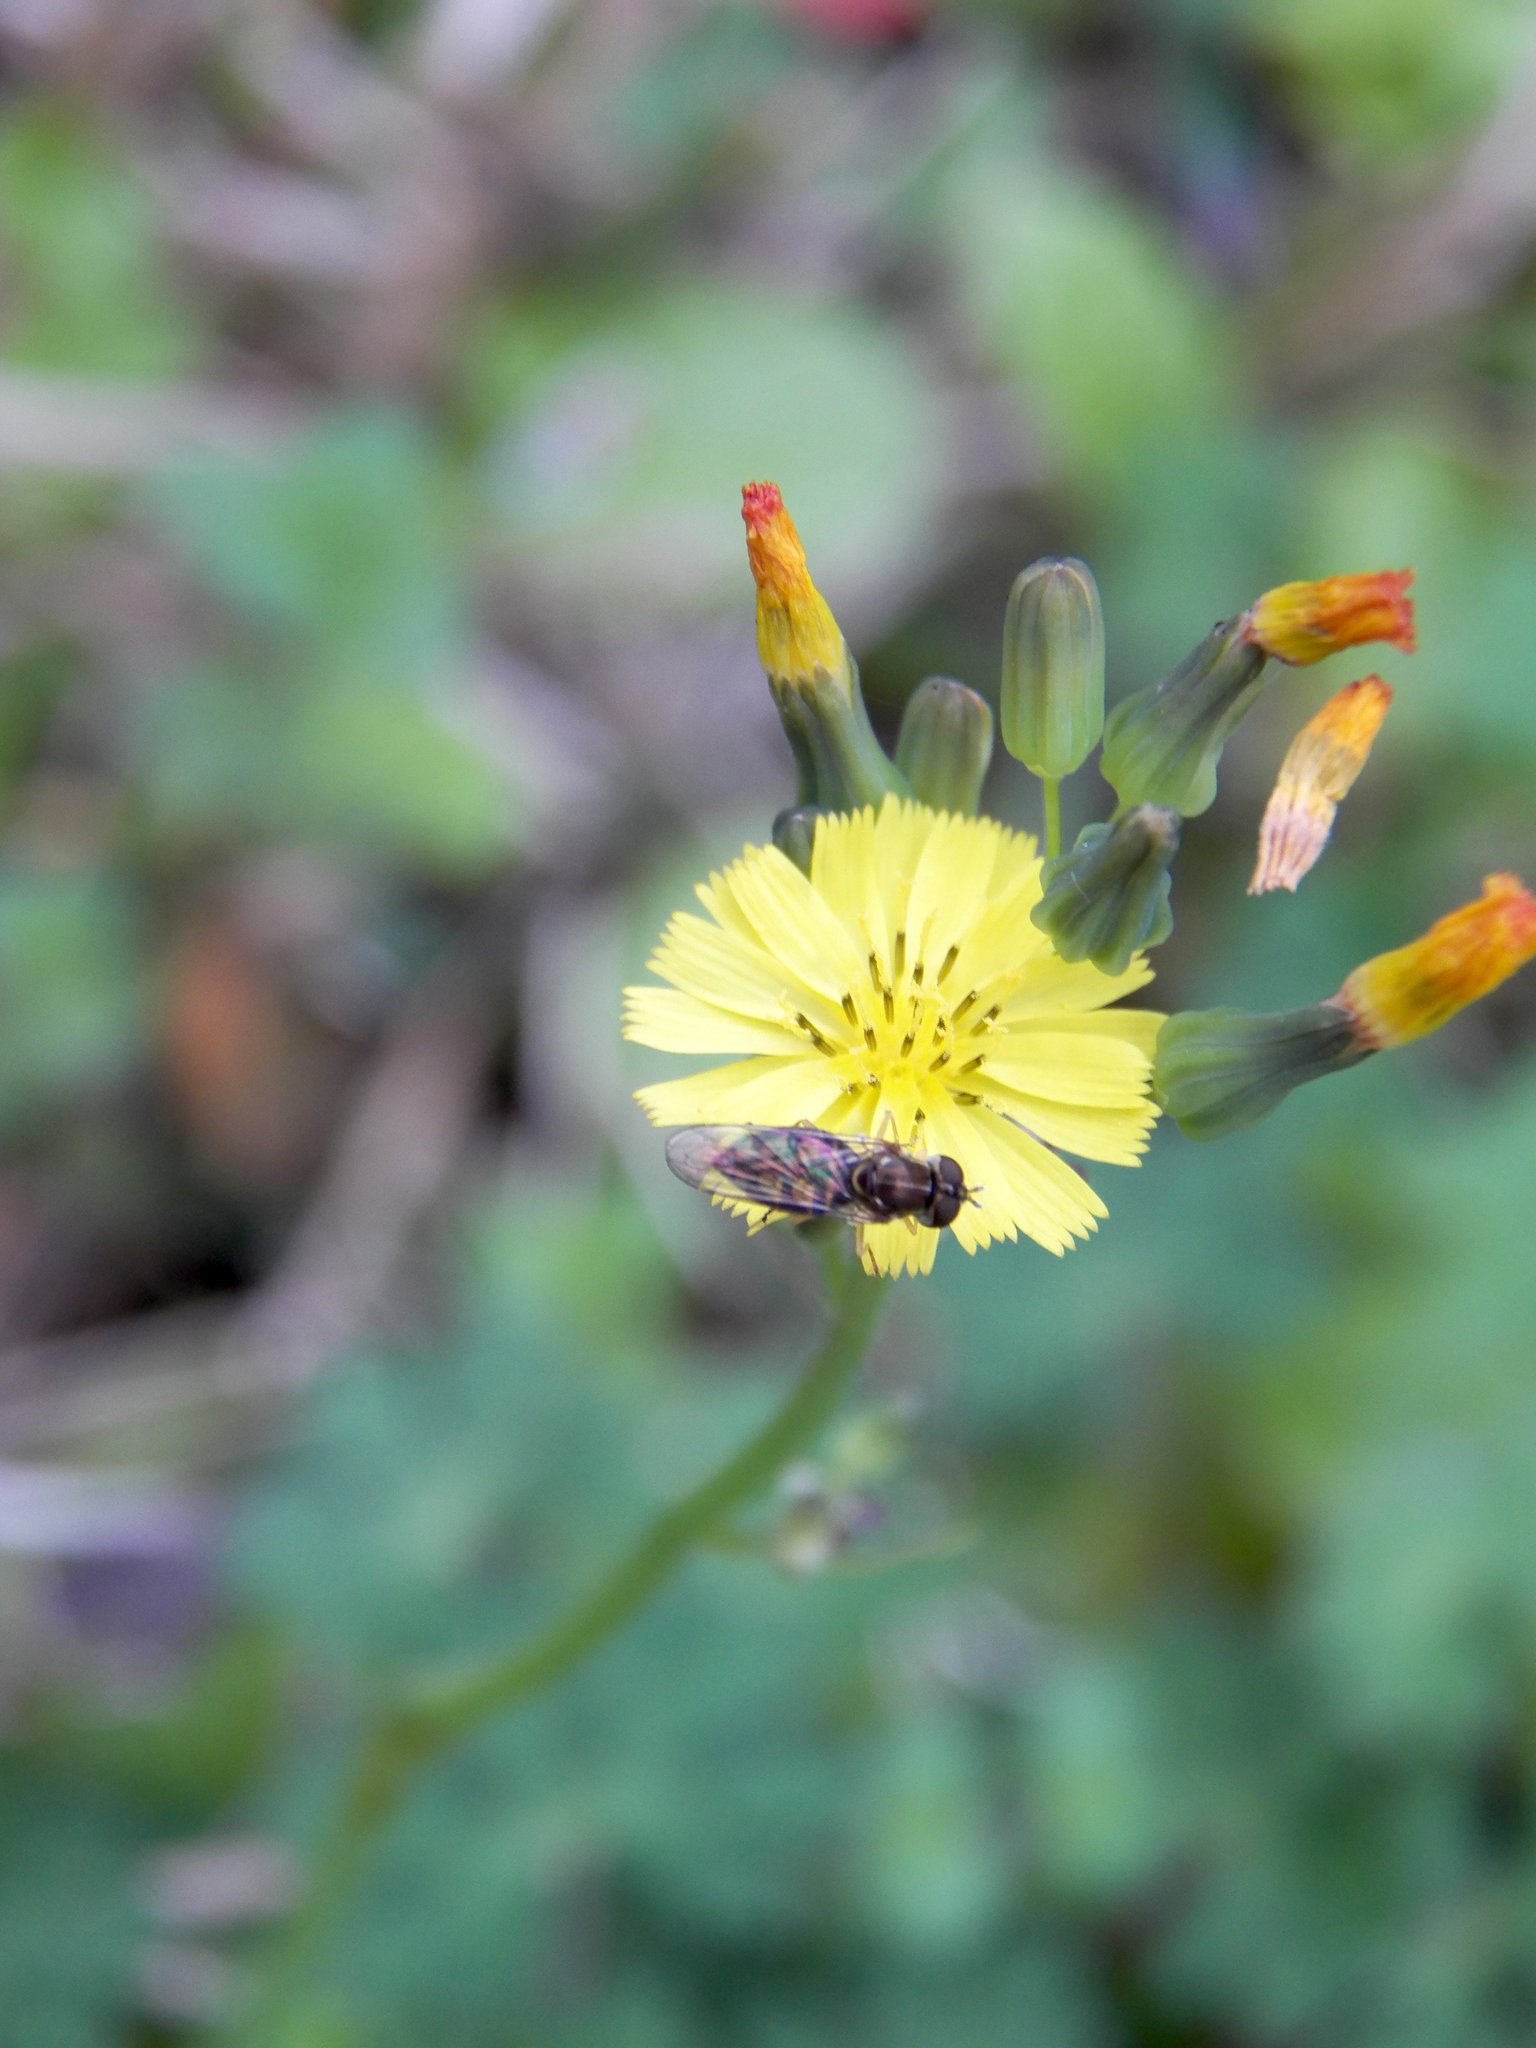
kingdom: Plantae
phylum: Tracheophyta
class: Magnoliopsida
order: Asterales
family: Asteraceae
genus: Youngia
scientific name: Youngia japonica
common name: Oriental false hawksbeard
